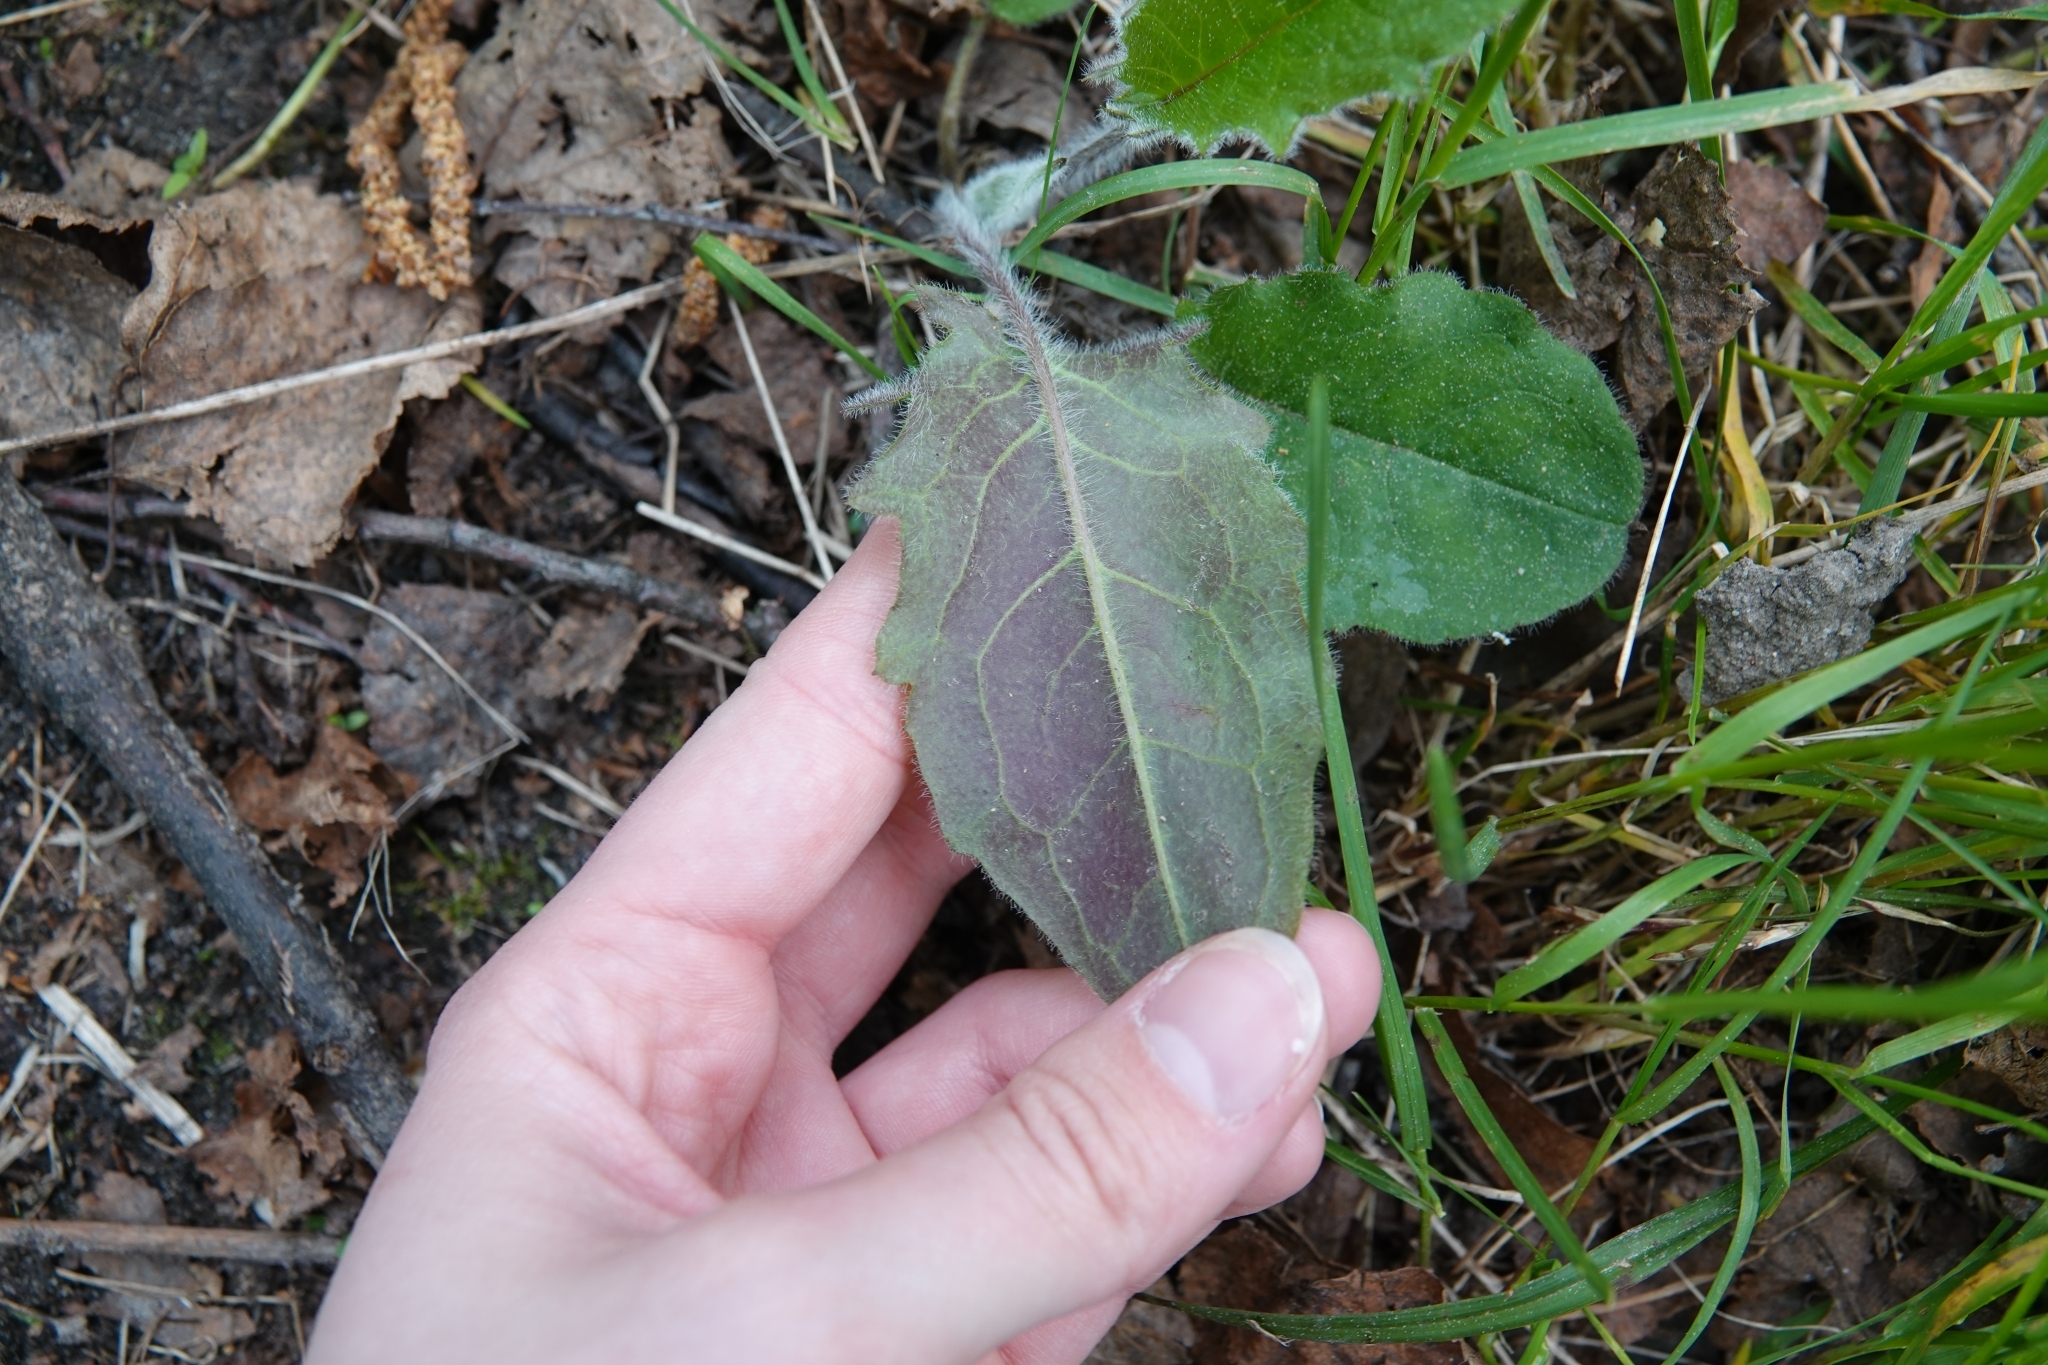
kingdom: Plantae
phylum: Tracheophyta
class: Magnoliopsida
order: Asterales
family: Asteraceae
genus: Hieracium
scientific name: Hieracium murorum
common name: Wall hawkweed
